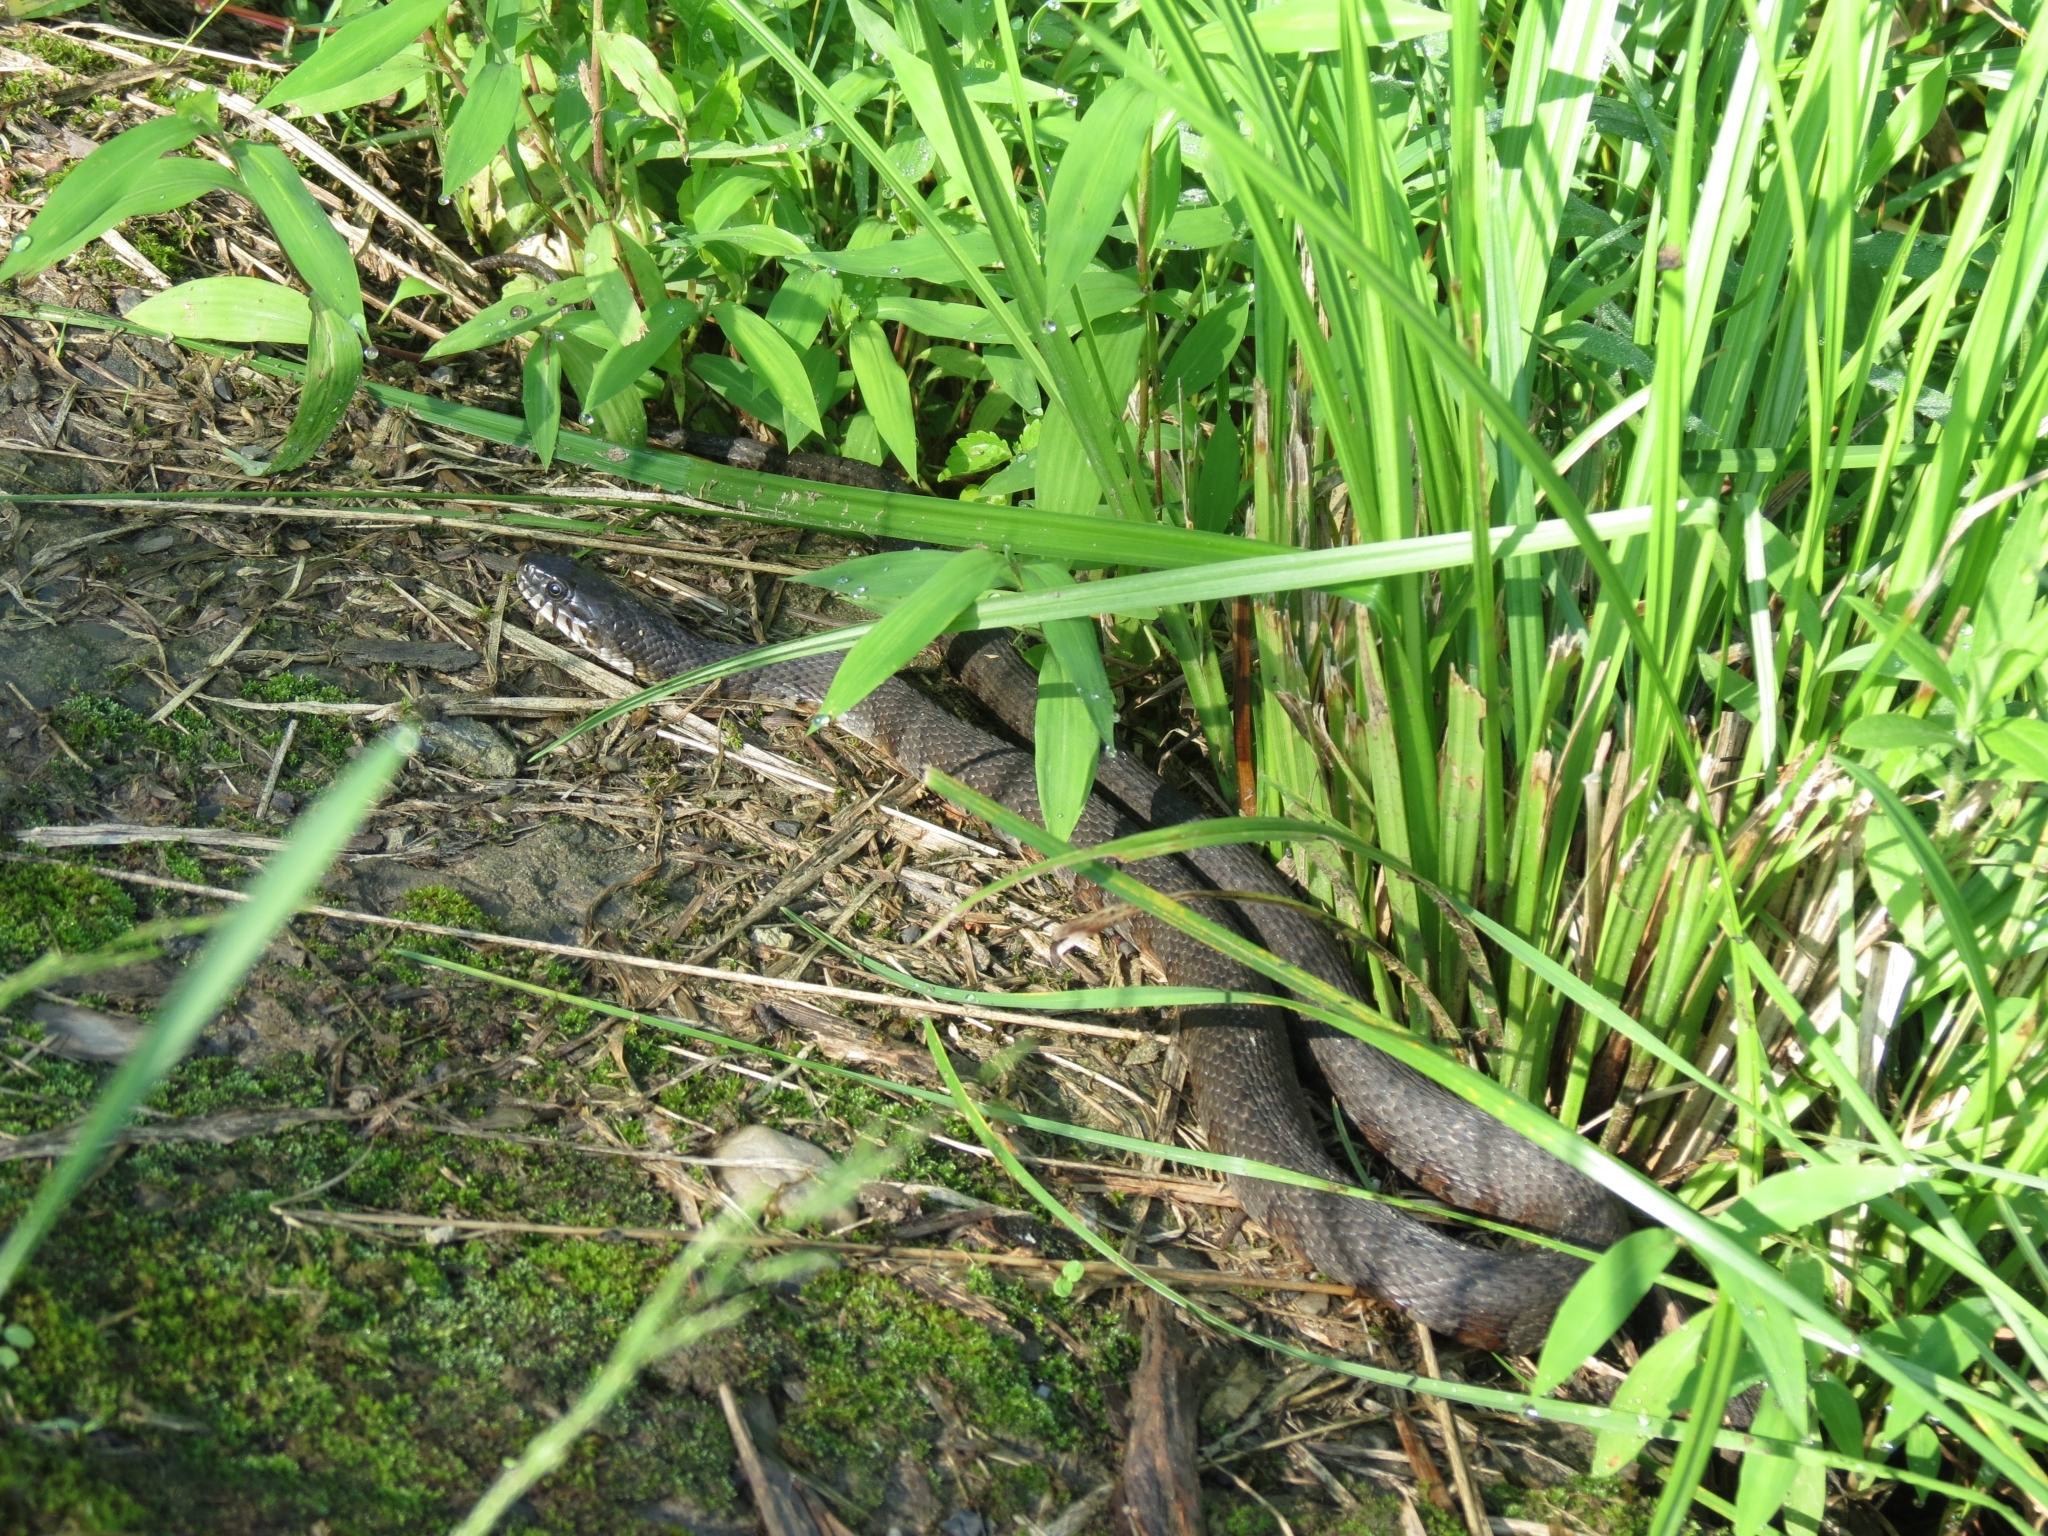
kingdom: Animalia
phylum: Chordata
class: Squamata
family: Colubridae
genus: Nerodia
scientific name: Nerodia sipedon
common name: Northern water snake
